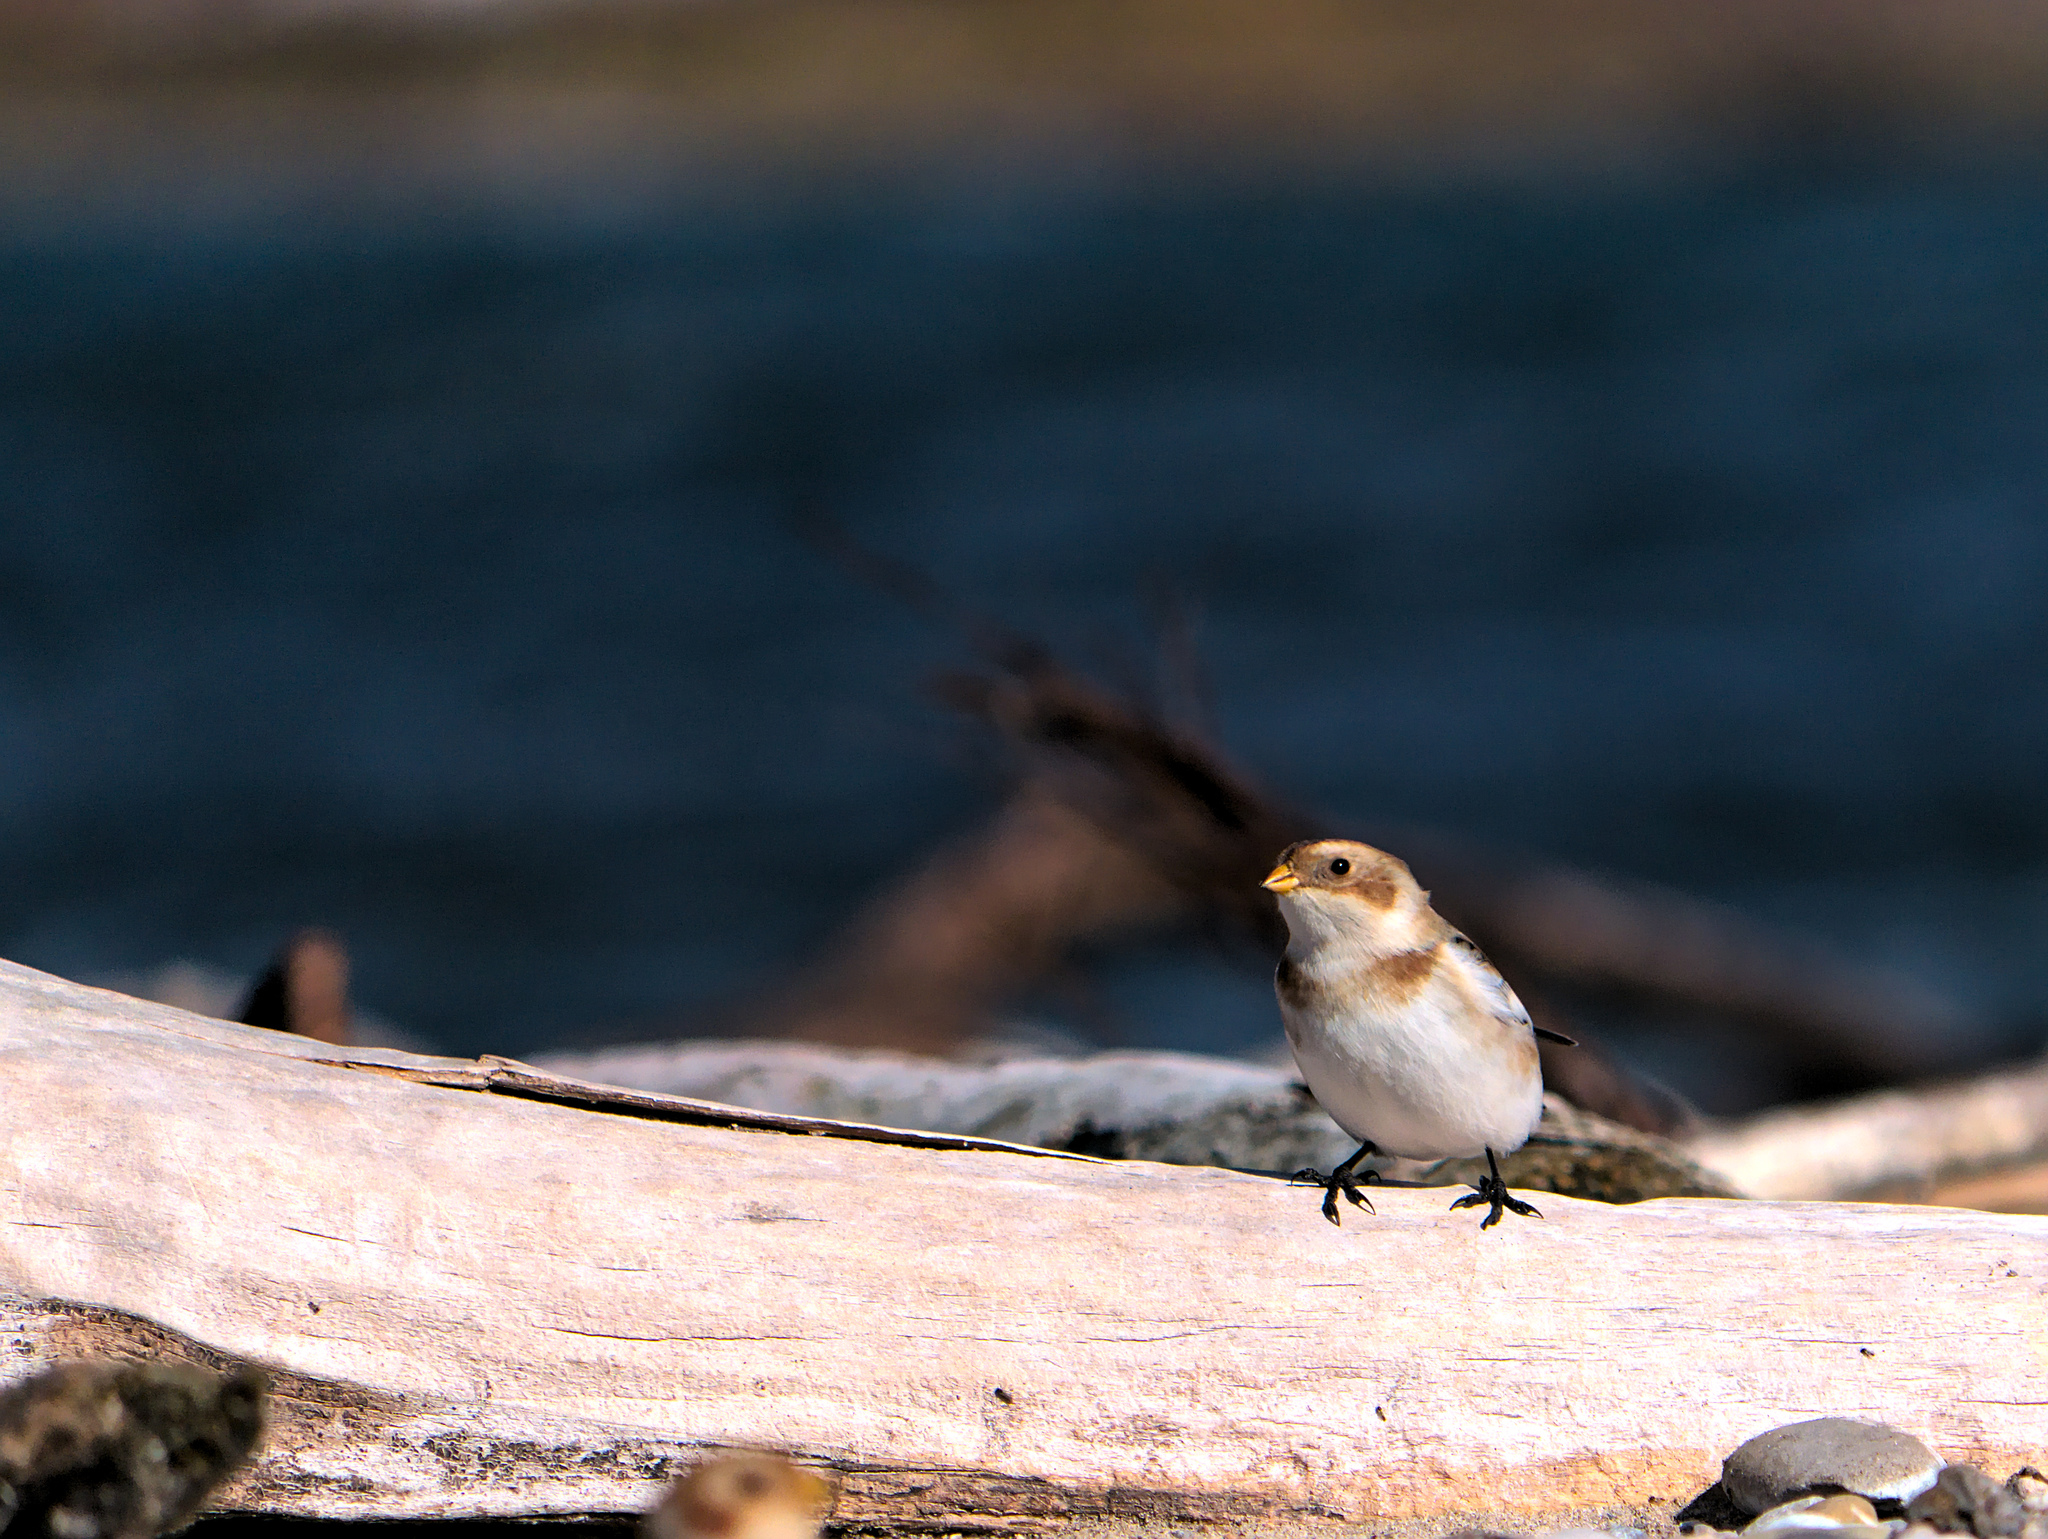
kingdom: Animalia
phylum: Chordata
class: Aves
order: Passeriformes
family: Calcariidae
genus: Plectrophenax
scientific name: Plectrophenax nivalis
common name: Snow bunting
